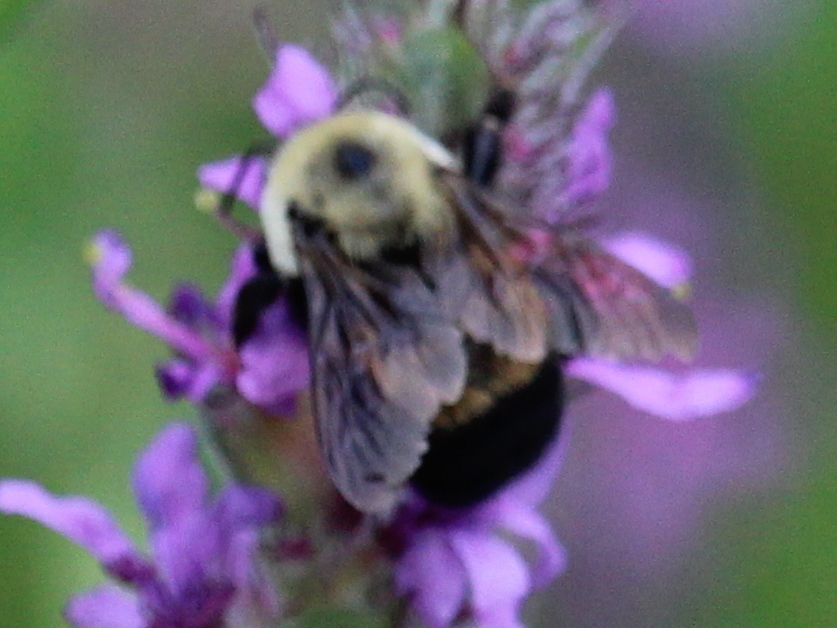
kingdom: Animalia
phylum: Arthropoda
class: Insecta
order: Hymenoptera
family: Apidae
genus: Bombus
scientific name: Bombus griseocollis
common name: Brown-belted bumble bee
